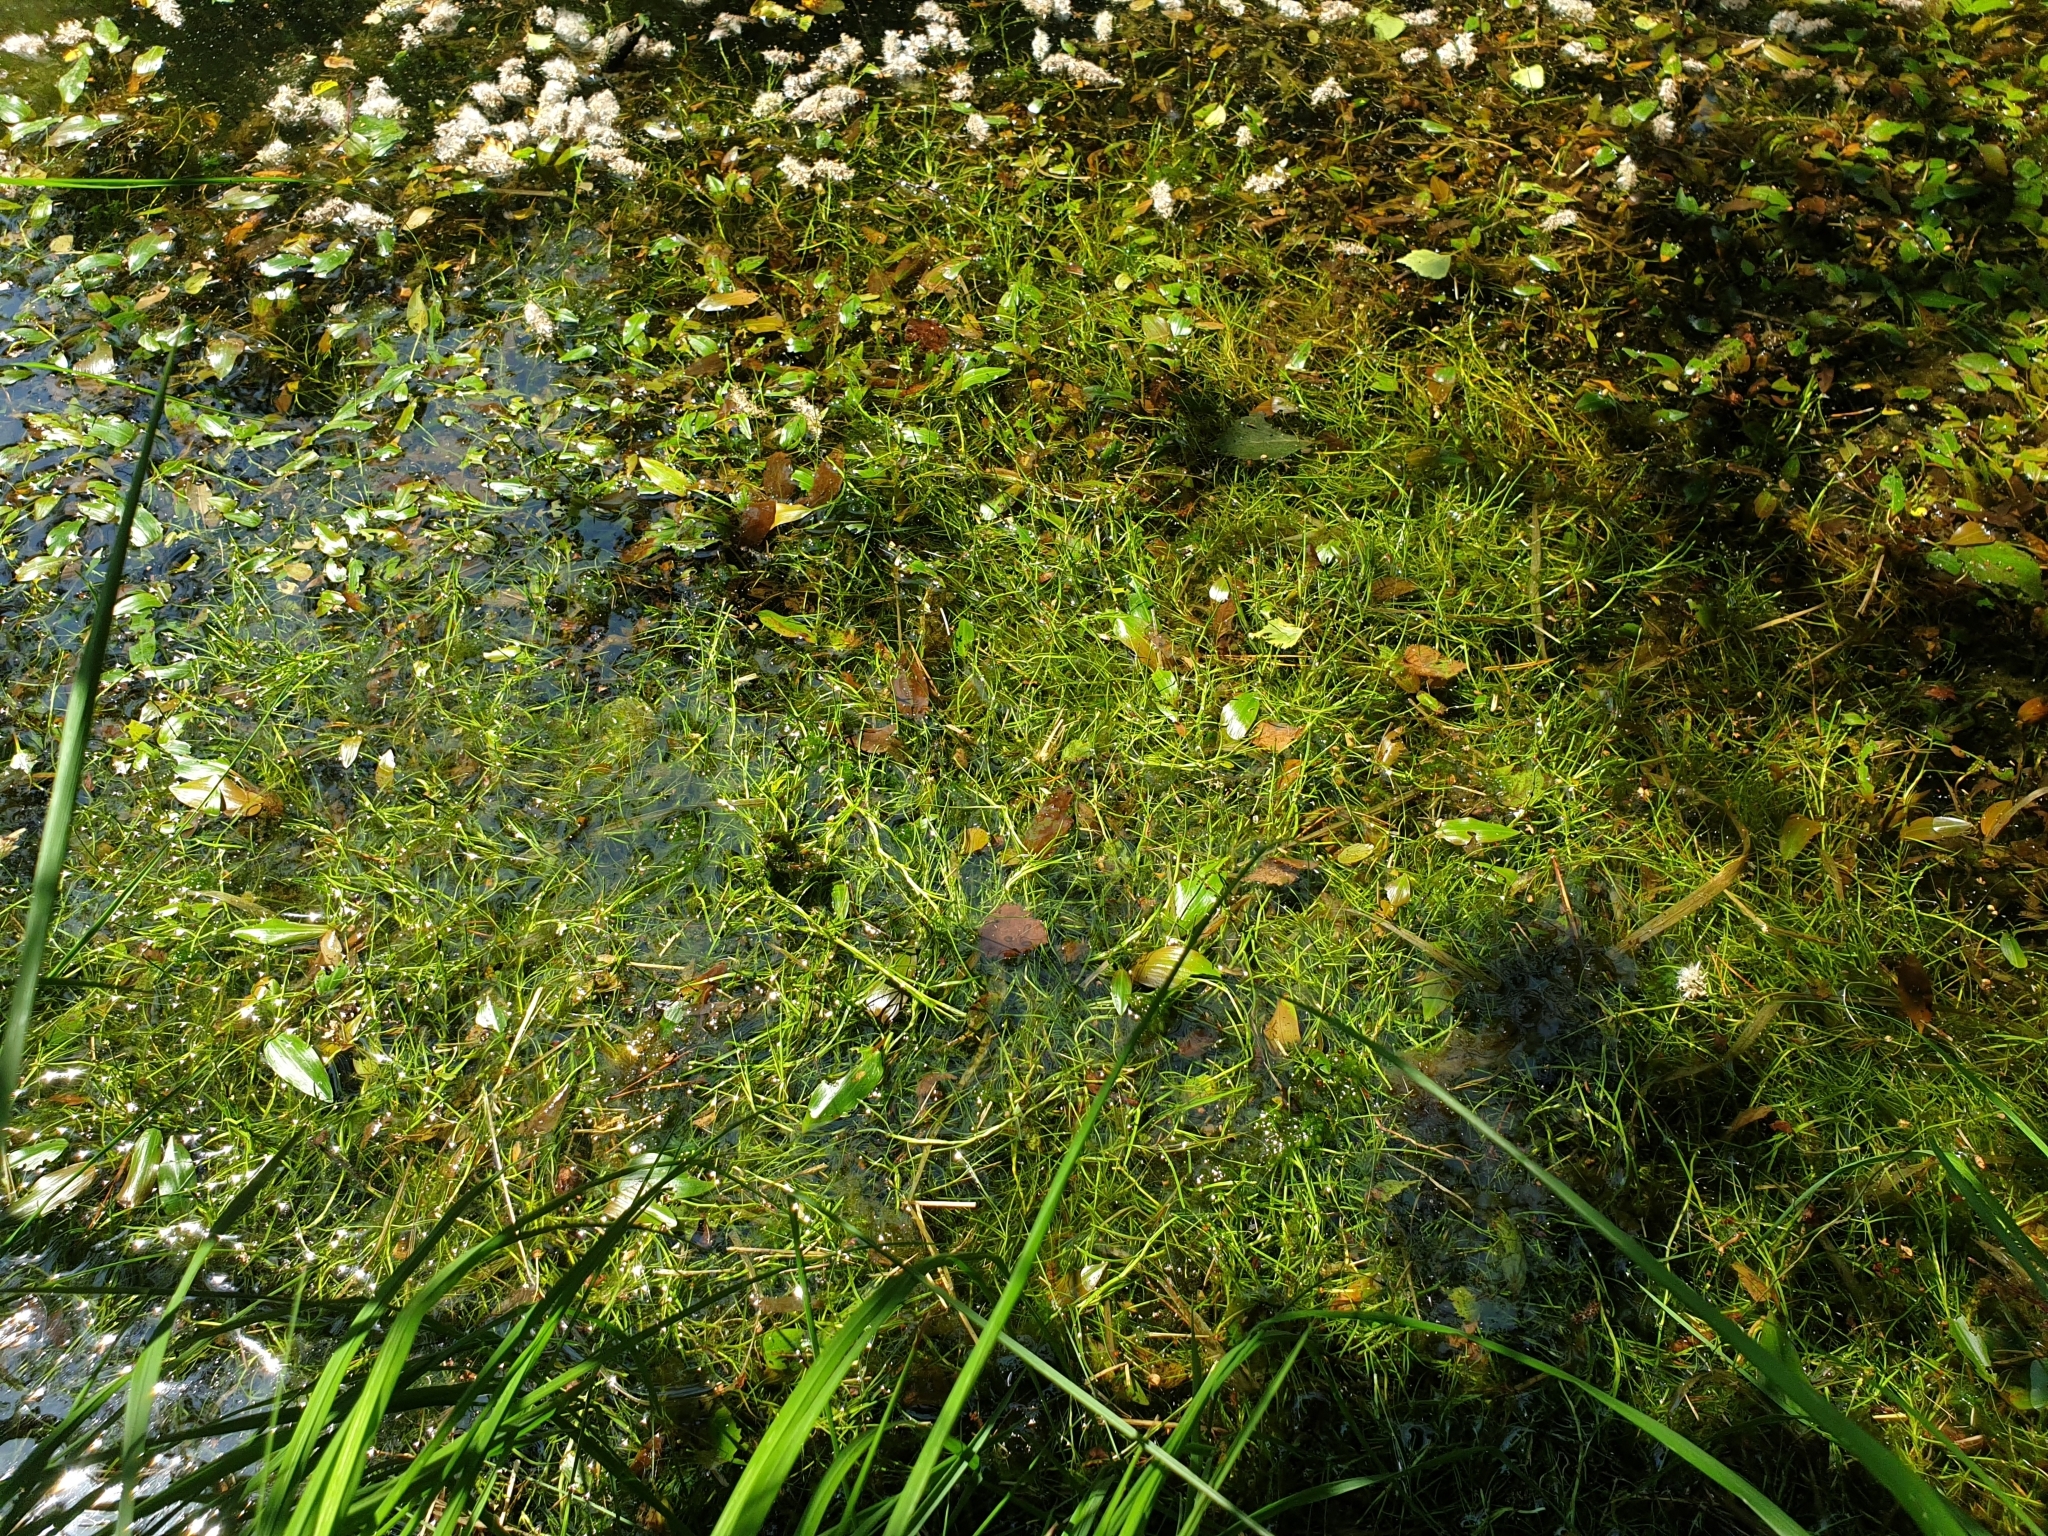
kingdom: Plantae
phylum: Tracheophyta
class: Liliopsida
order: Poales
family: Cyperaceae
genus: Isolepis
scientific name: Isolepis fluitans
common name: Floating club-rush
